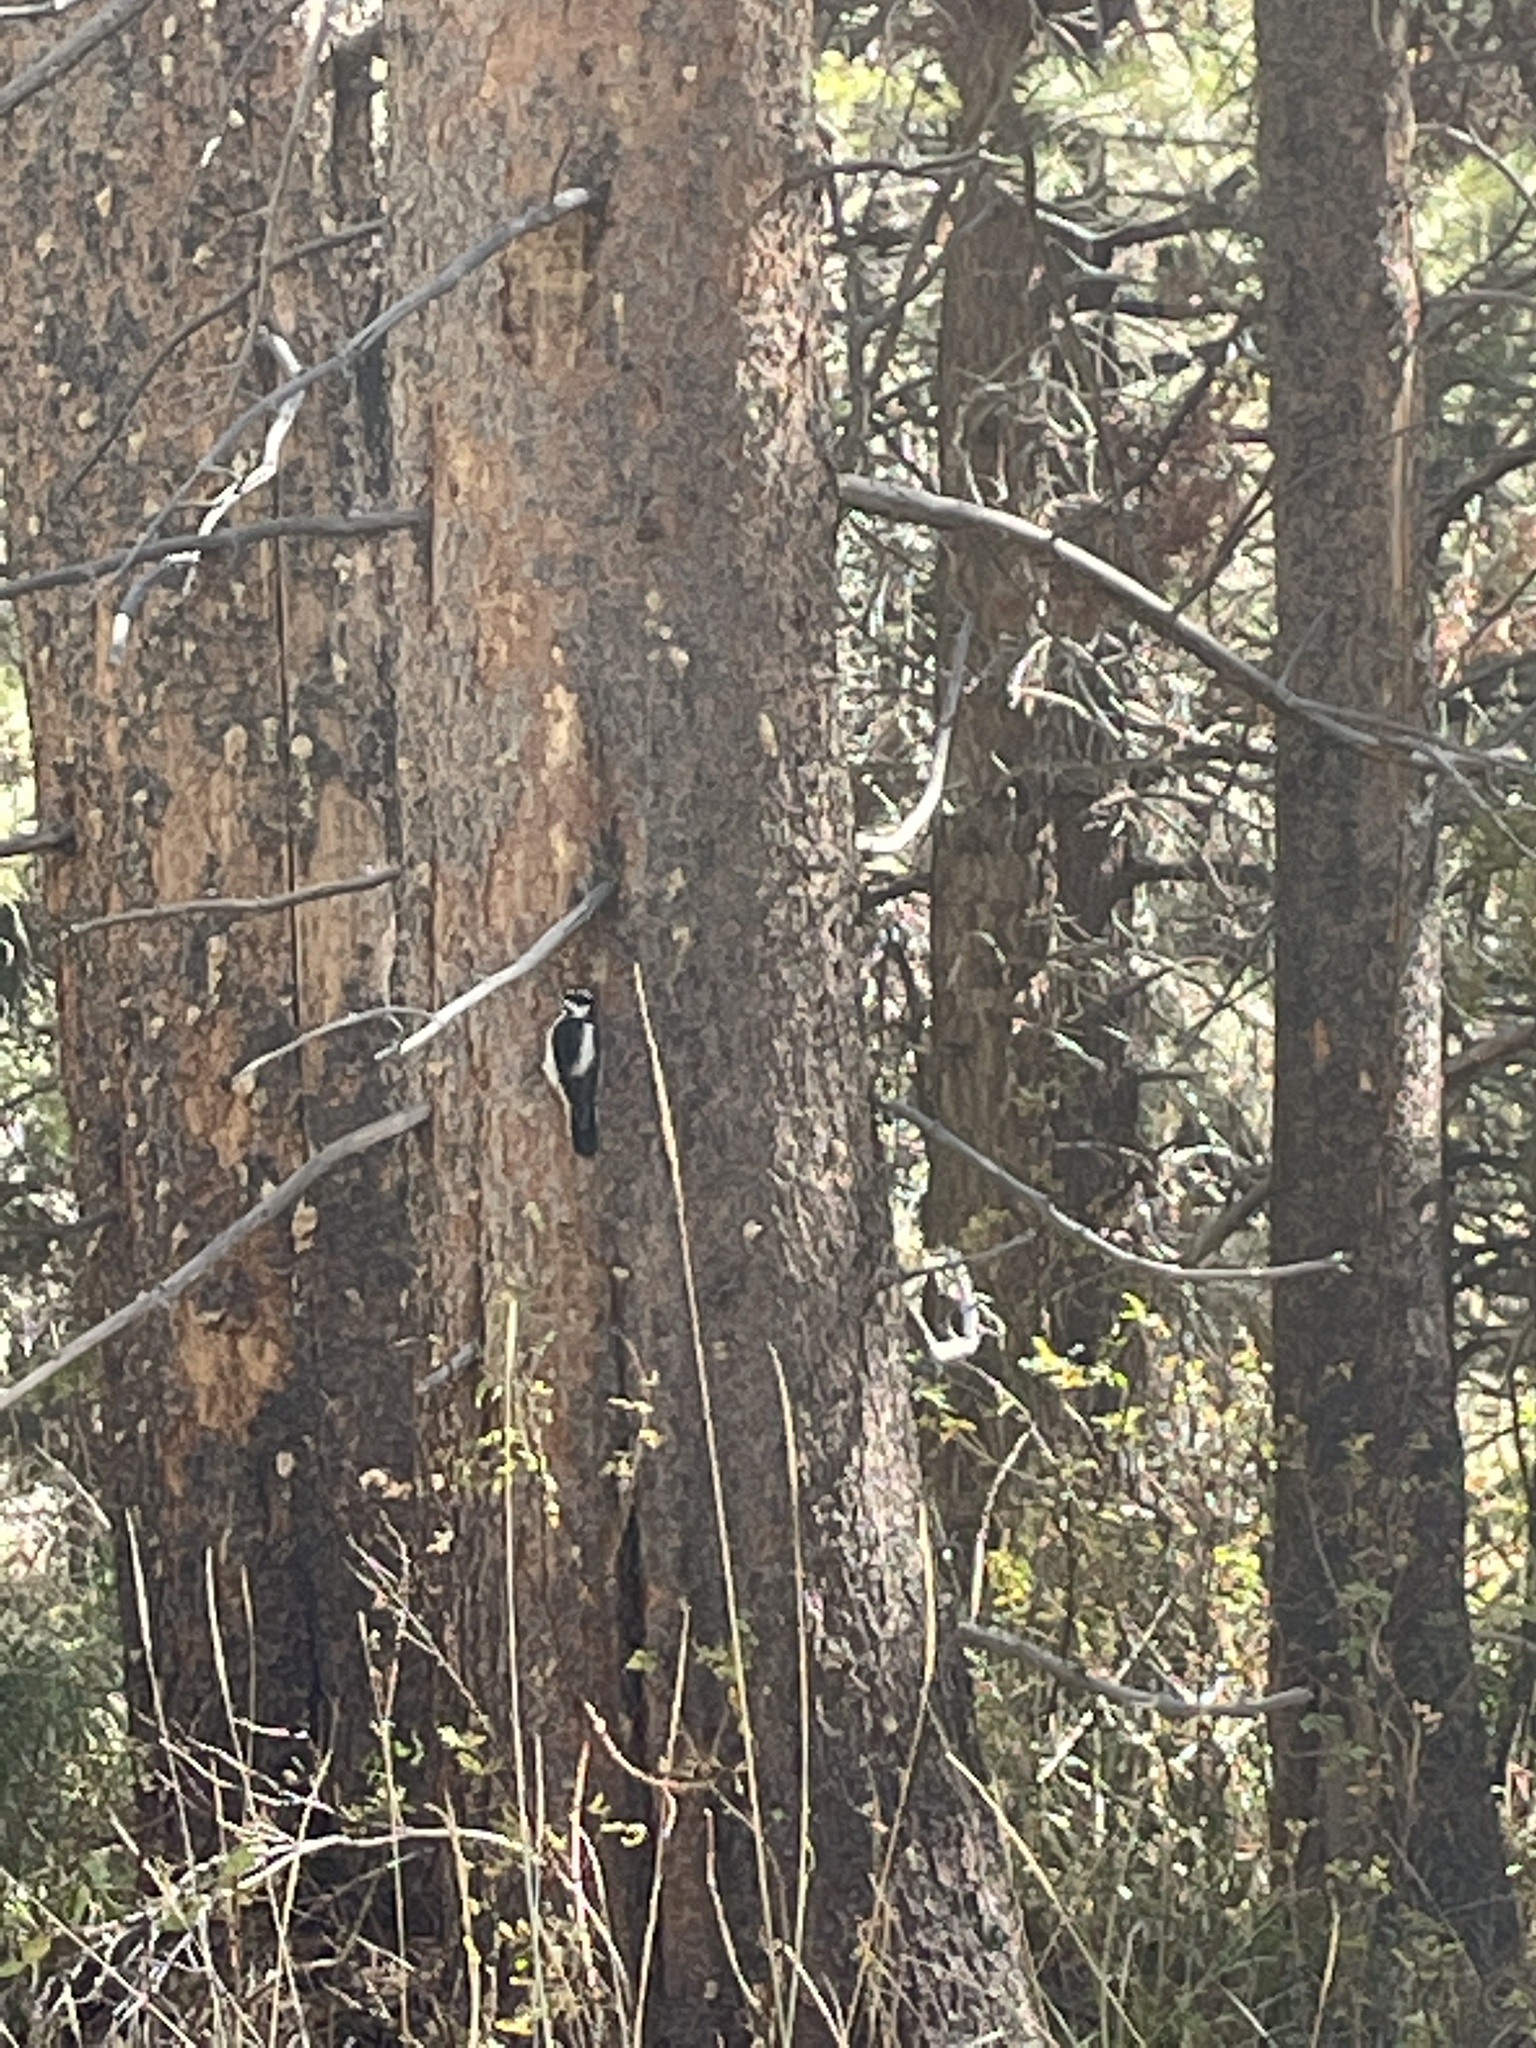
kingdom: Animalia
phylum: Chordata
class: Aves
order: Piciformes
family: Picidae
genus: Leuconotopicus
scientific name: Leuconotopicus villosus
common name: Hairy woodpecker
